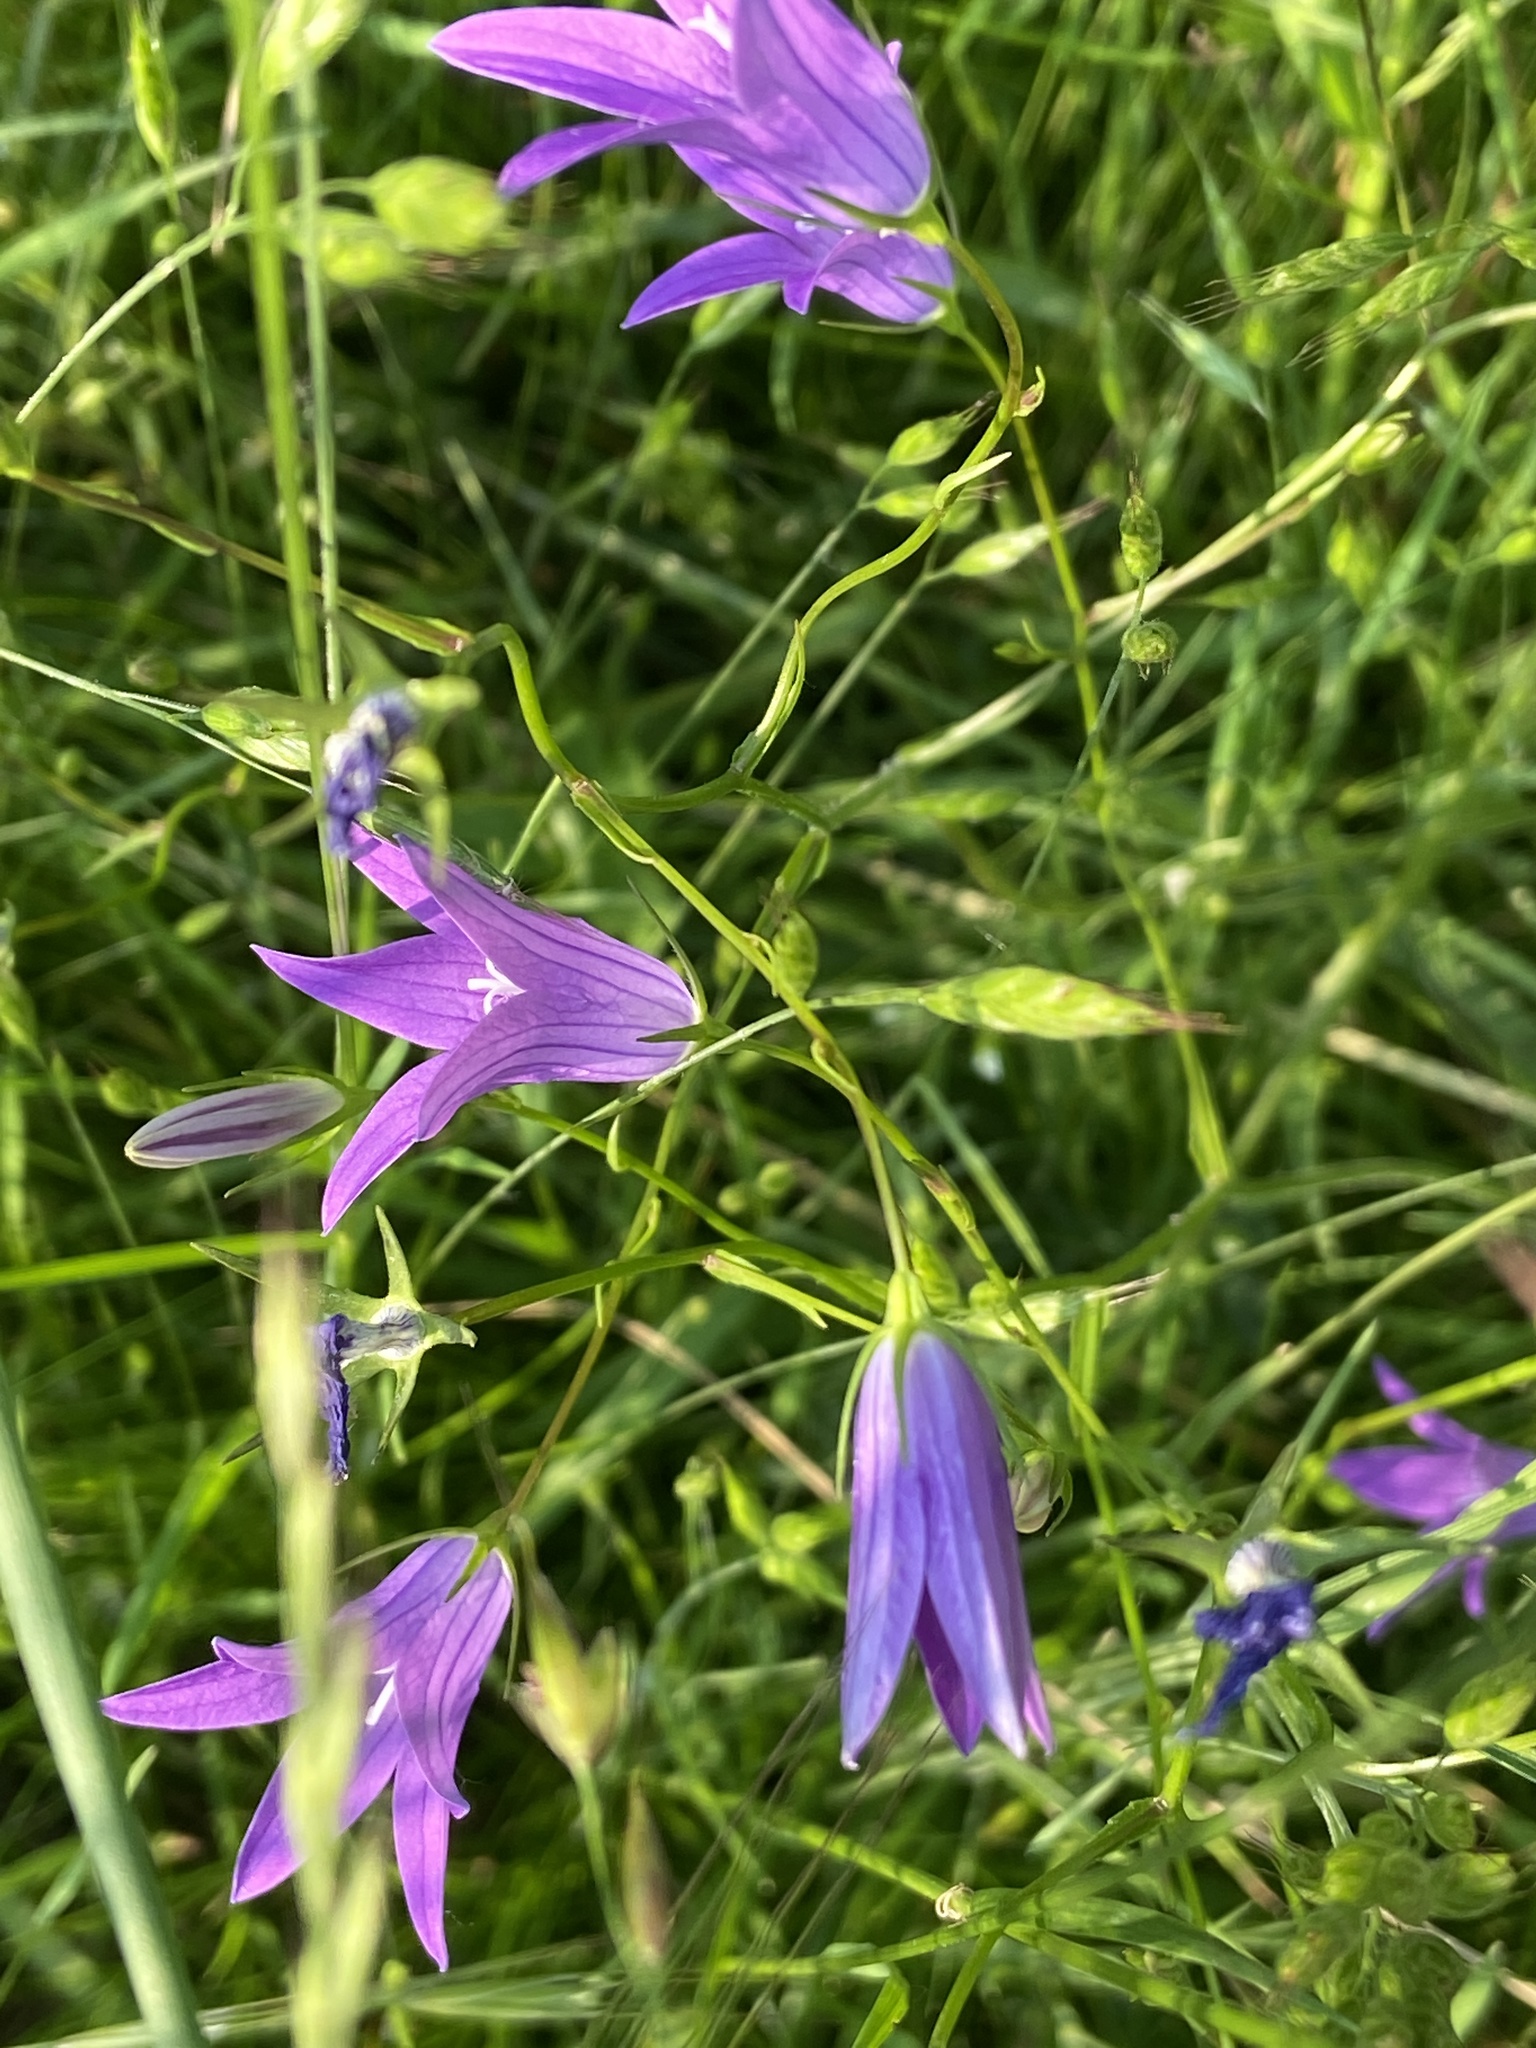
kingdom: Plantae
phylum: Tracheophyta
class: Magnoliopsida
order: Asterales
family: Campanulaceae
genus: Campanula
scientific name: Campanula patula
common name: Spreading bellflower
